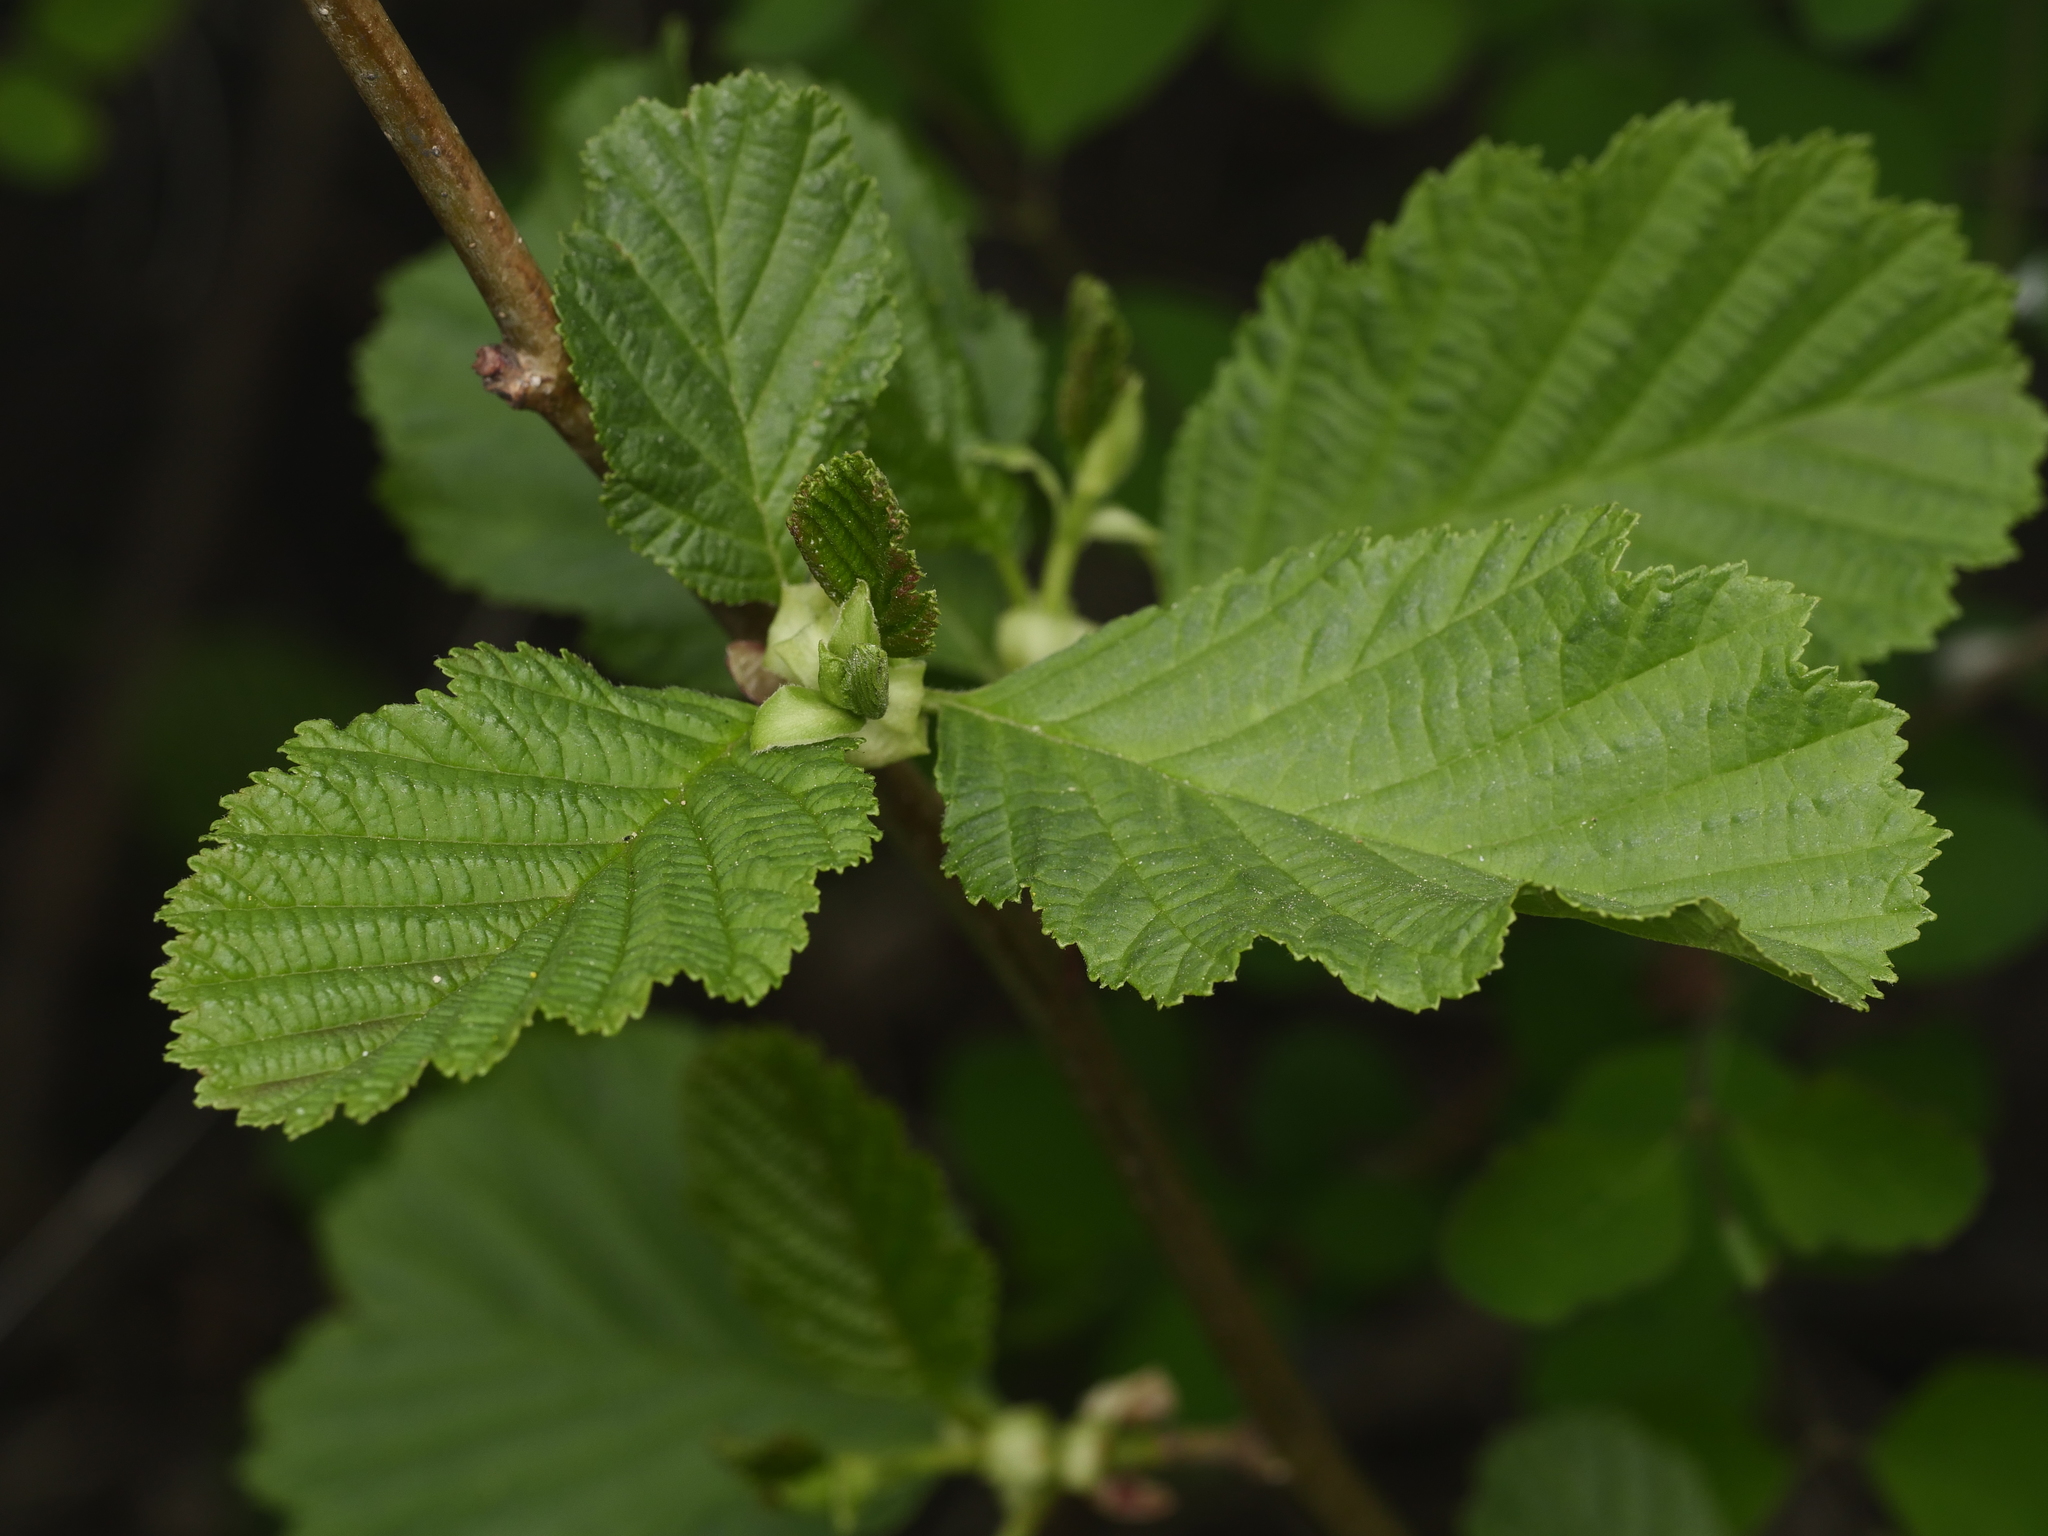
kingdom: Plantae
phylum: Tracheophyta
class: Magnoliopsida
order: Fagales
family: Betulaceae
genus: Alnus
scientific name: Alnus glutinosa
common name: Black alder
